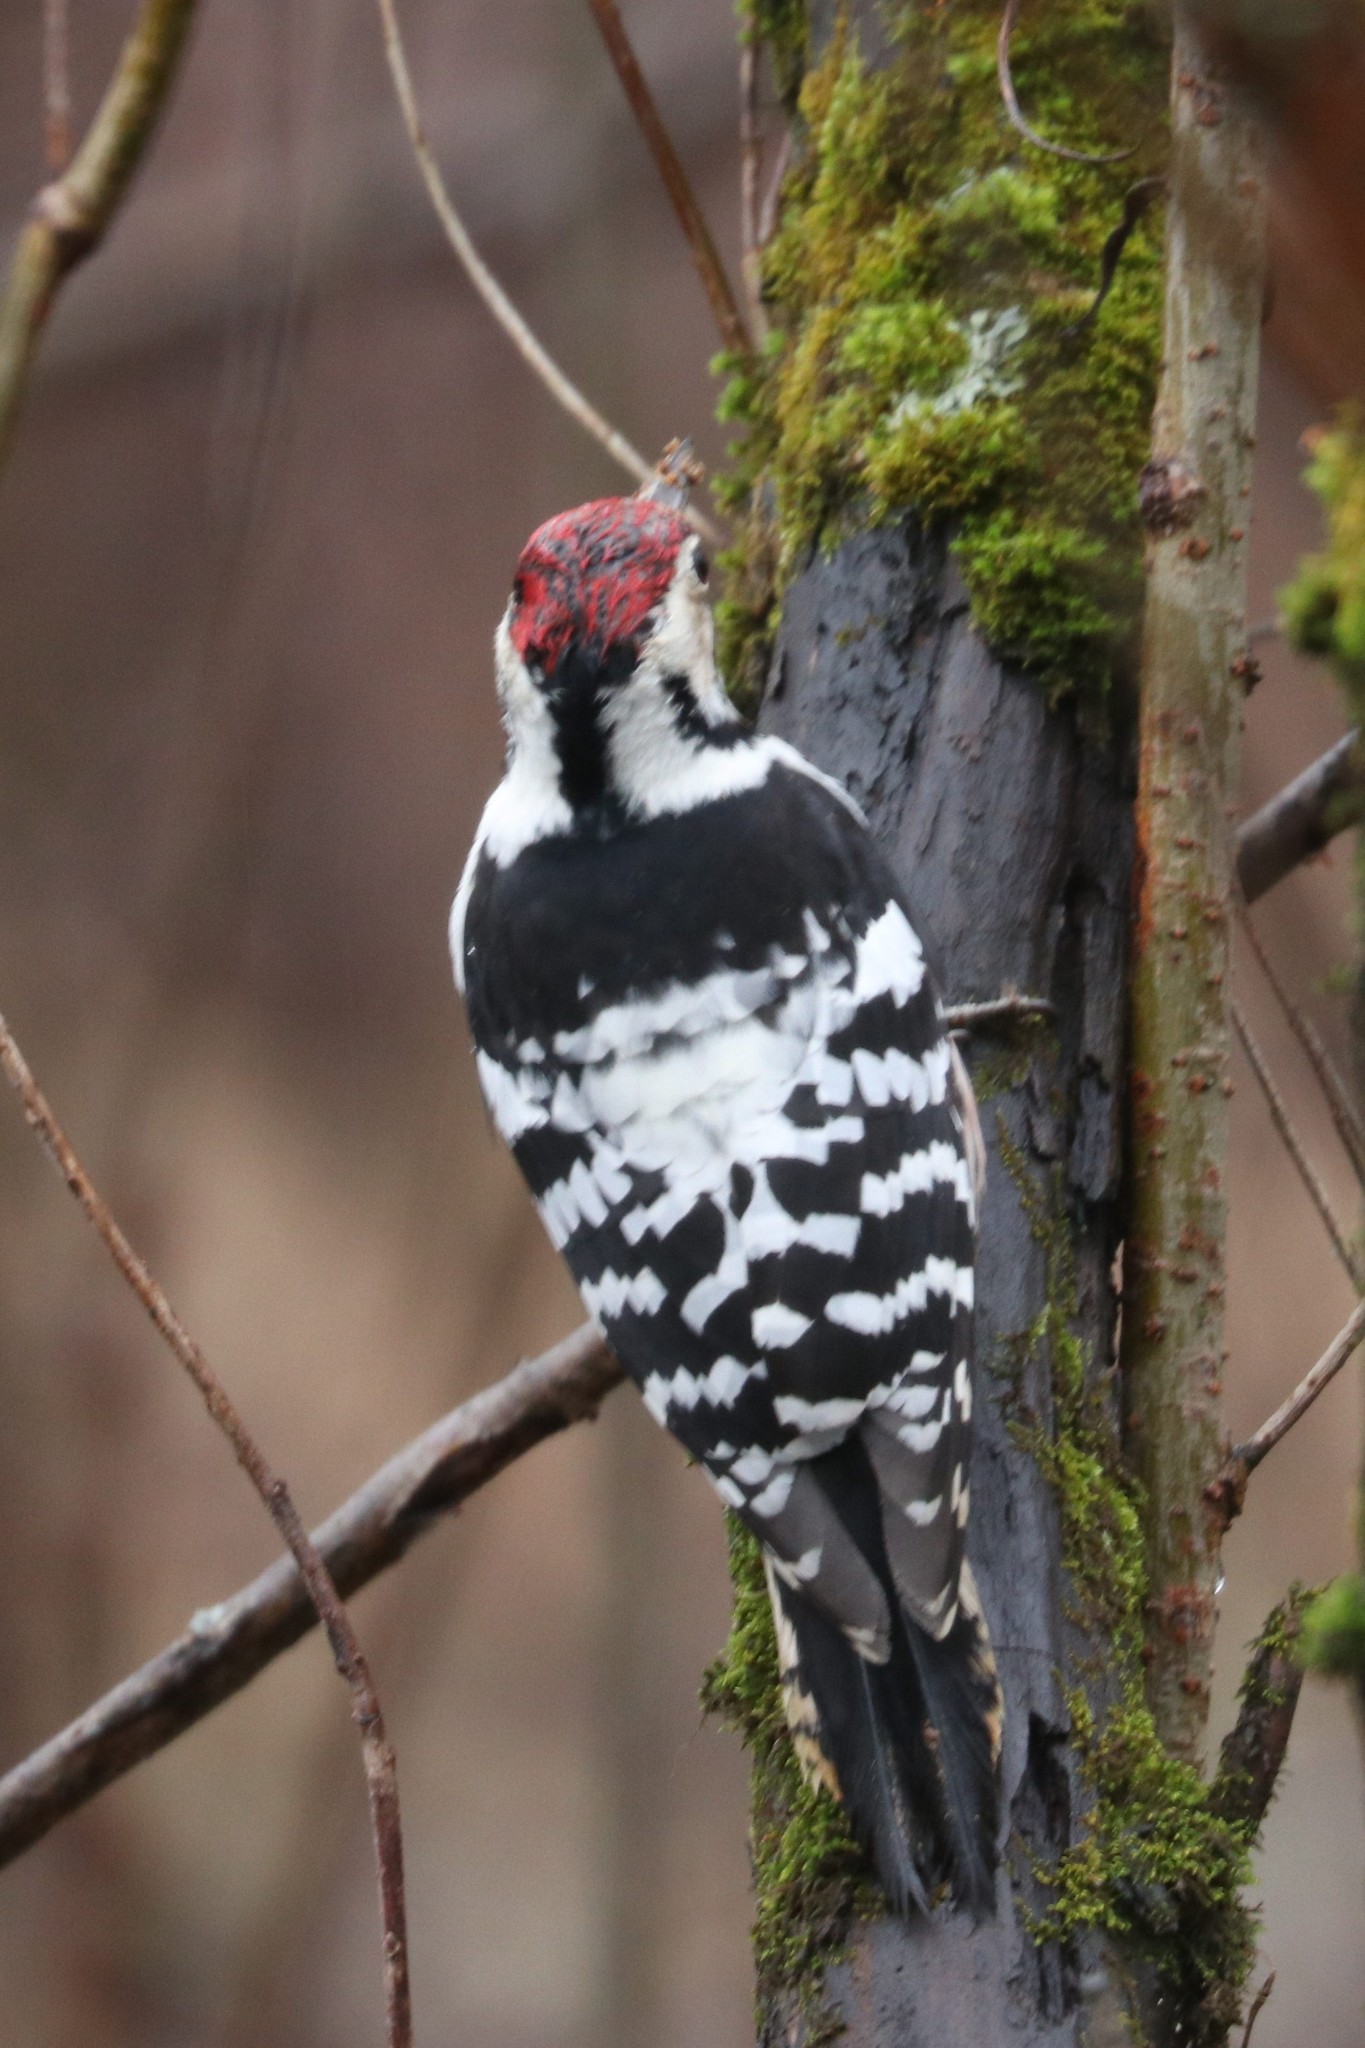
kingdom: Animalia
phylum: Chordata
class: Aves
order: Piciformes
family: Picidae
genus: Dendrocopos
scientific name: Dendrocopos leucotos
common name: White-backed woodpecker
